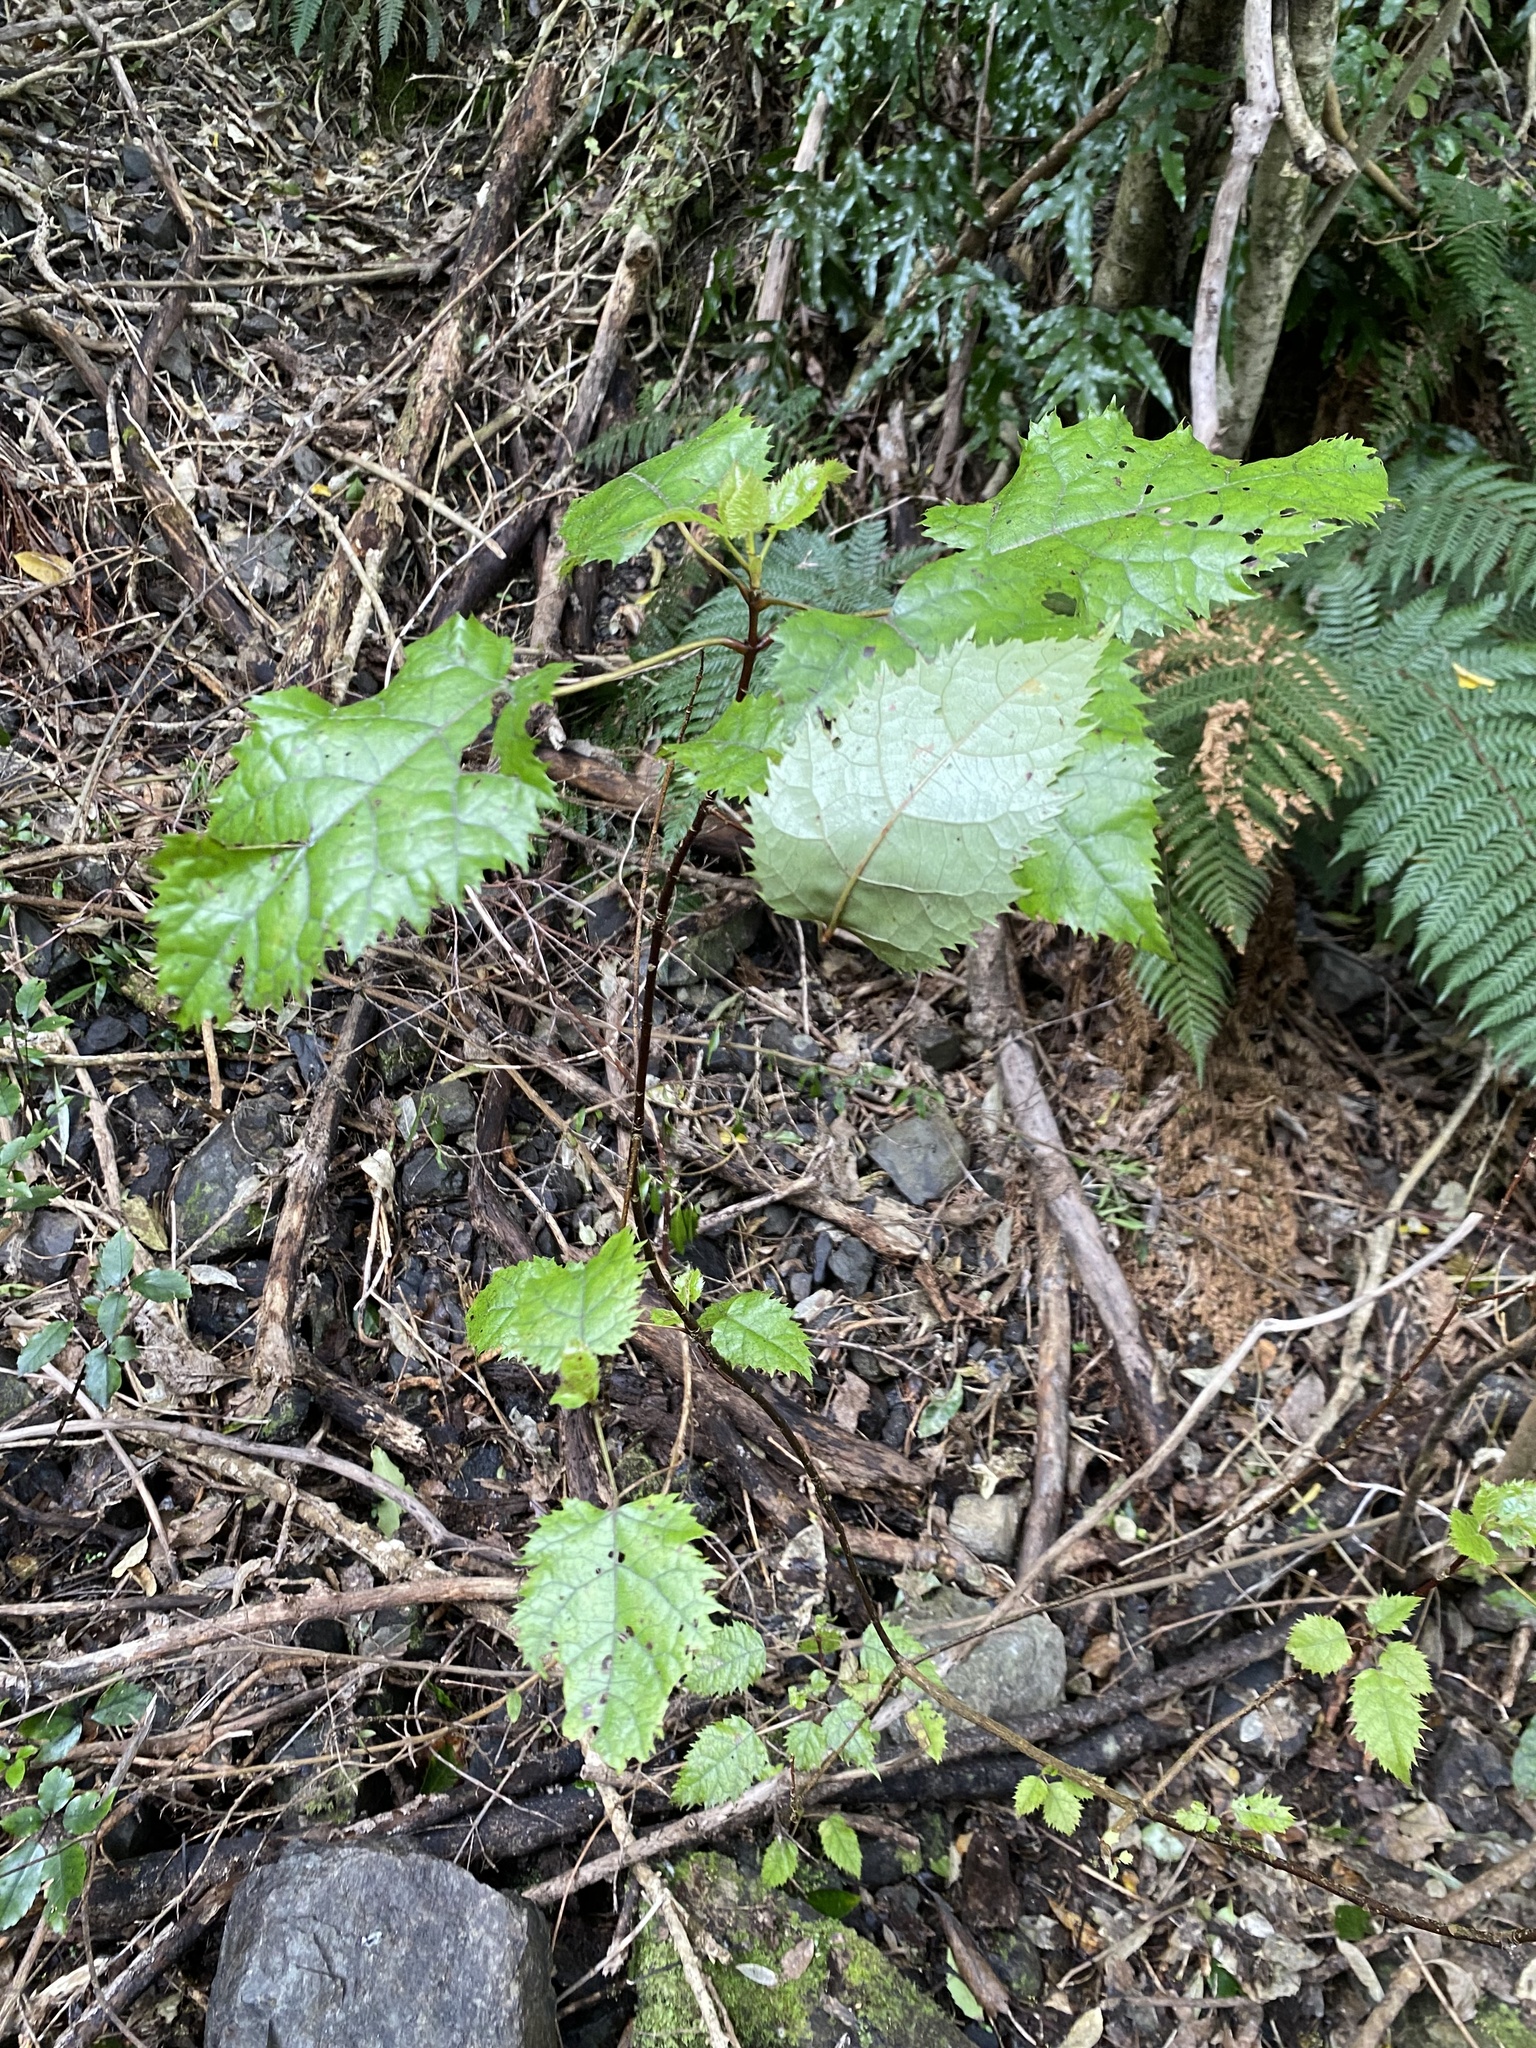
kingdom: Plantae
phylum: Tracheophyta
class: Magnoliopsida
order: Oxalidales
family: Elaeocarpaceae
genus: Aristotelia
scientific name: Aristotelia serrata
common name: New zealand wineberry
